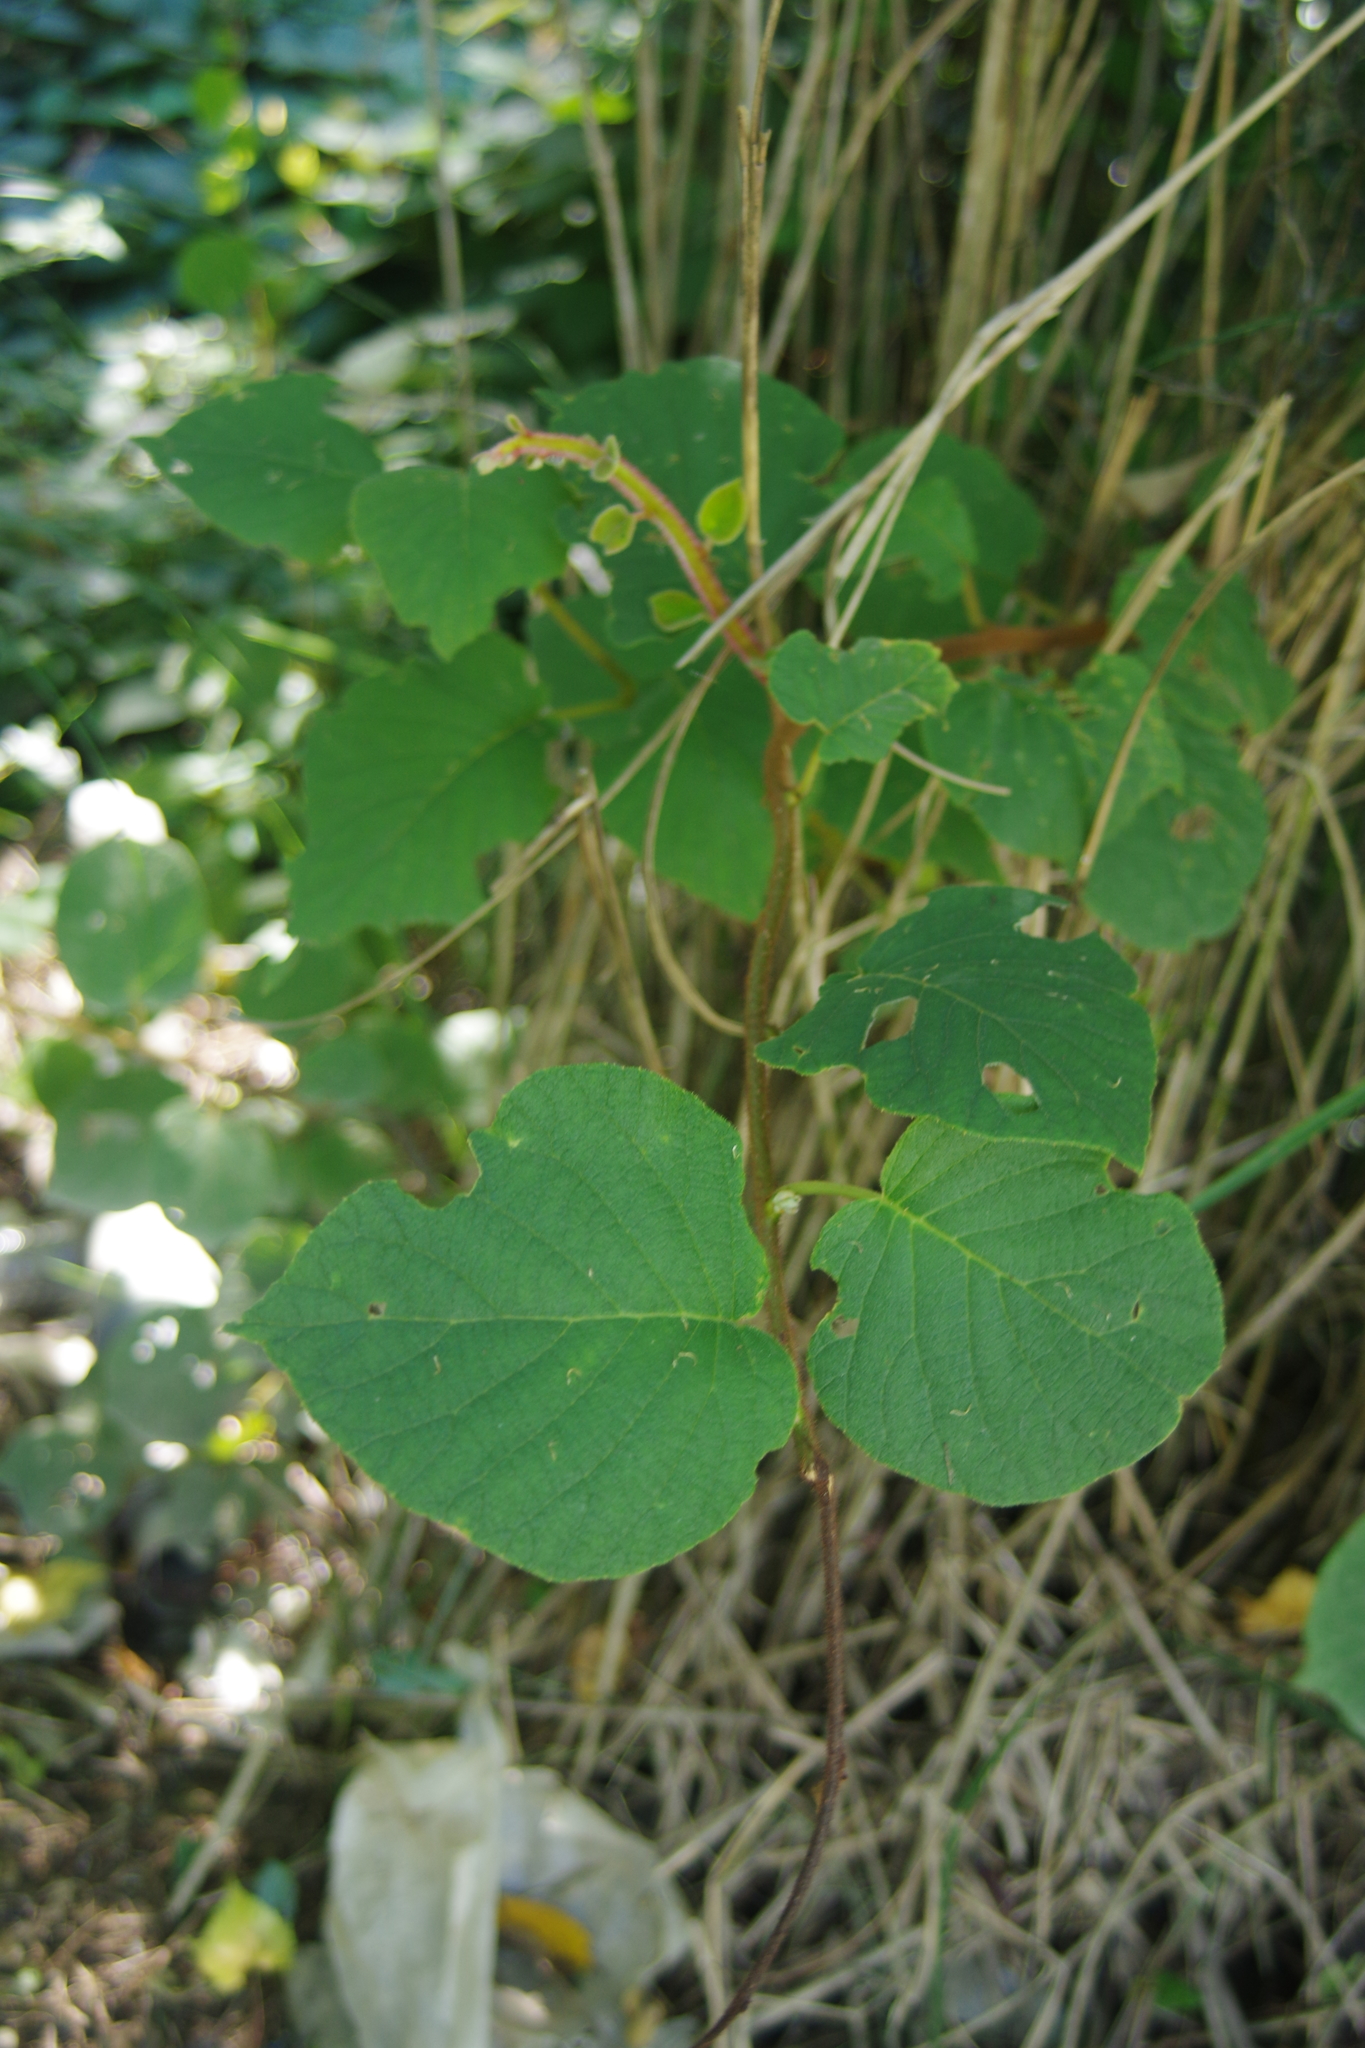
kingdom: Plantae
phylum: Tracheophyta
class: Magnoliopsida
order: Ericales
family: Actinidiaceae
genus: Actinidia
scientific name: Actinidia chinensis
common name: Kiwi
